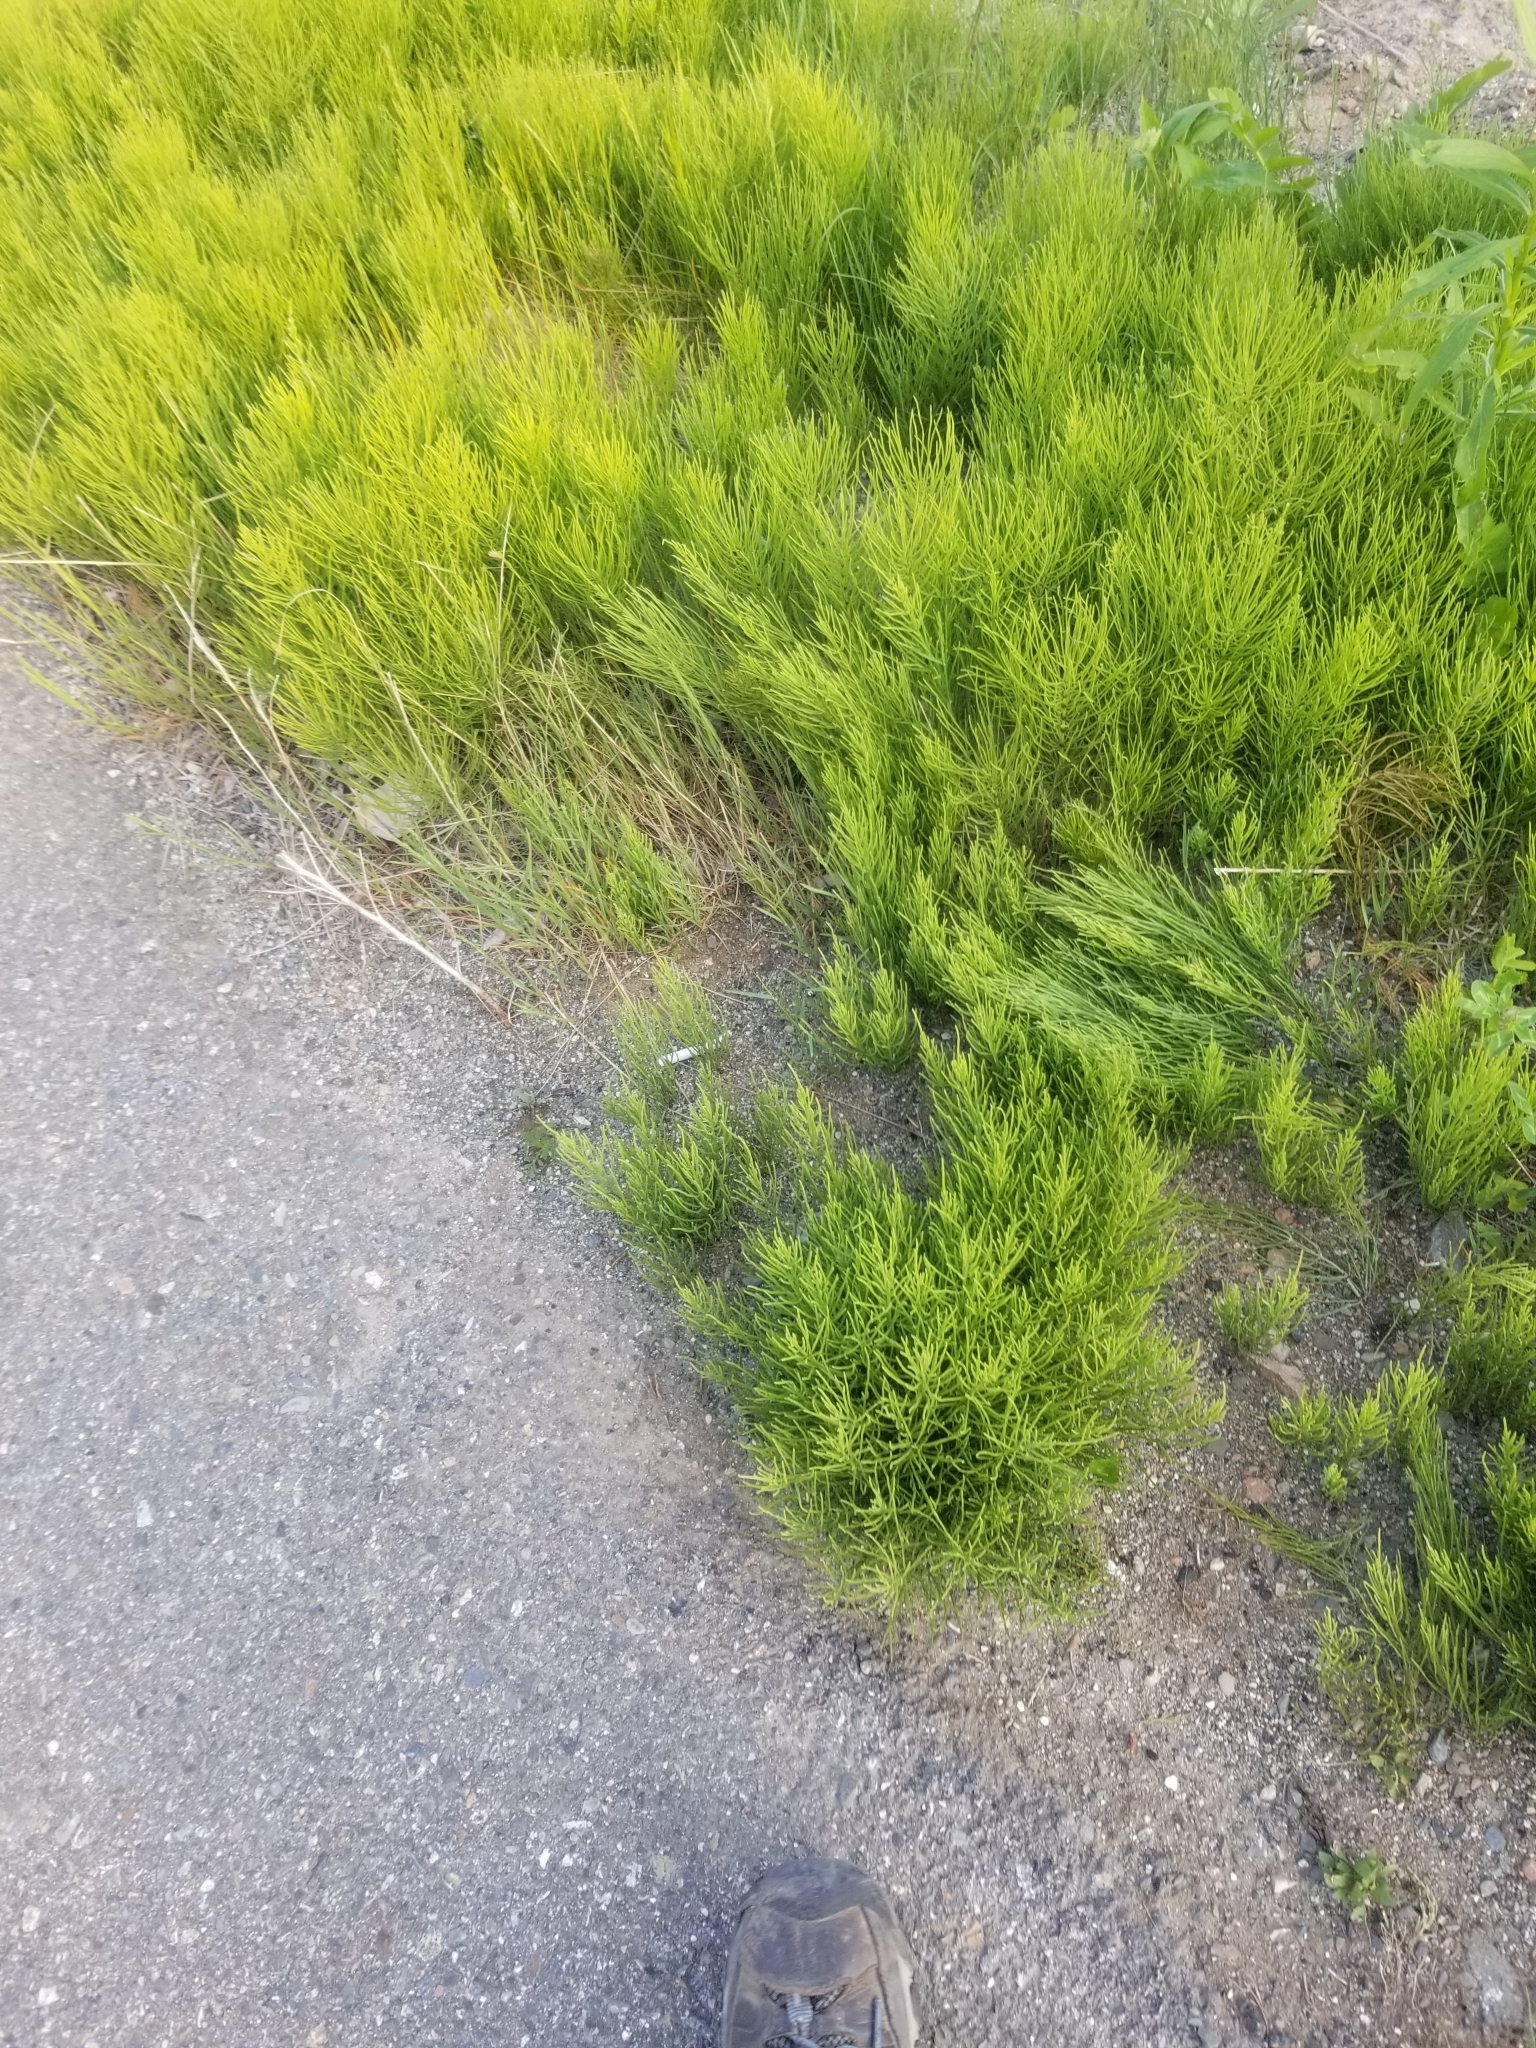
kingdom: Plantae
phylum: Tracheophyta
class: Polypodiopsida
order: Equisetales
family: Equisetaceae
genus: Equisetum
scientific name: Equisetum arvense
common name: Field horsetail
